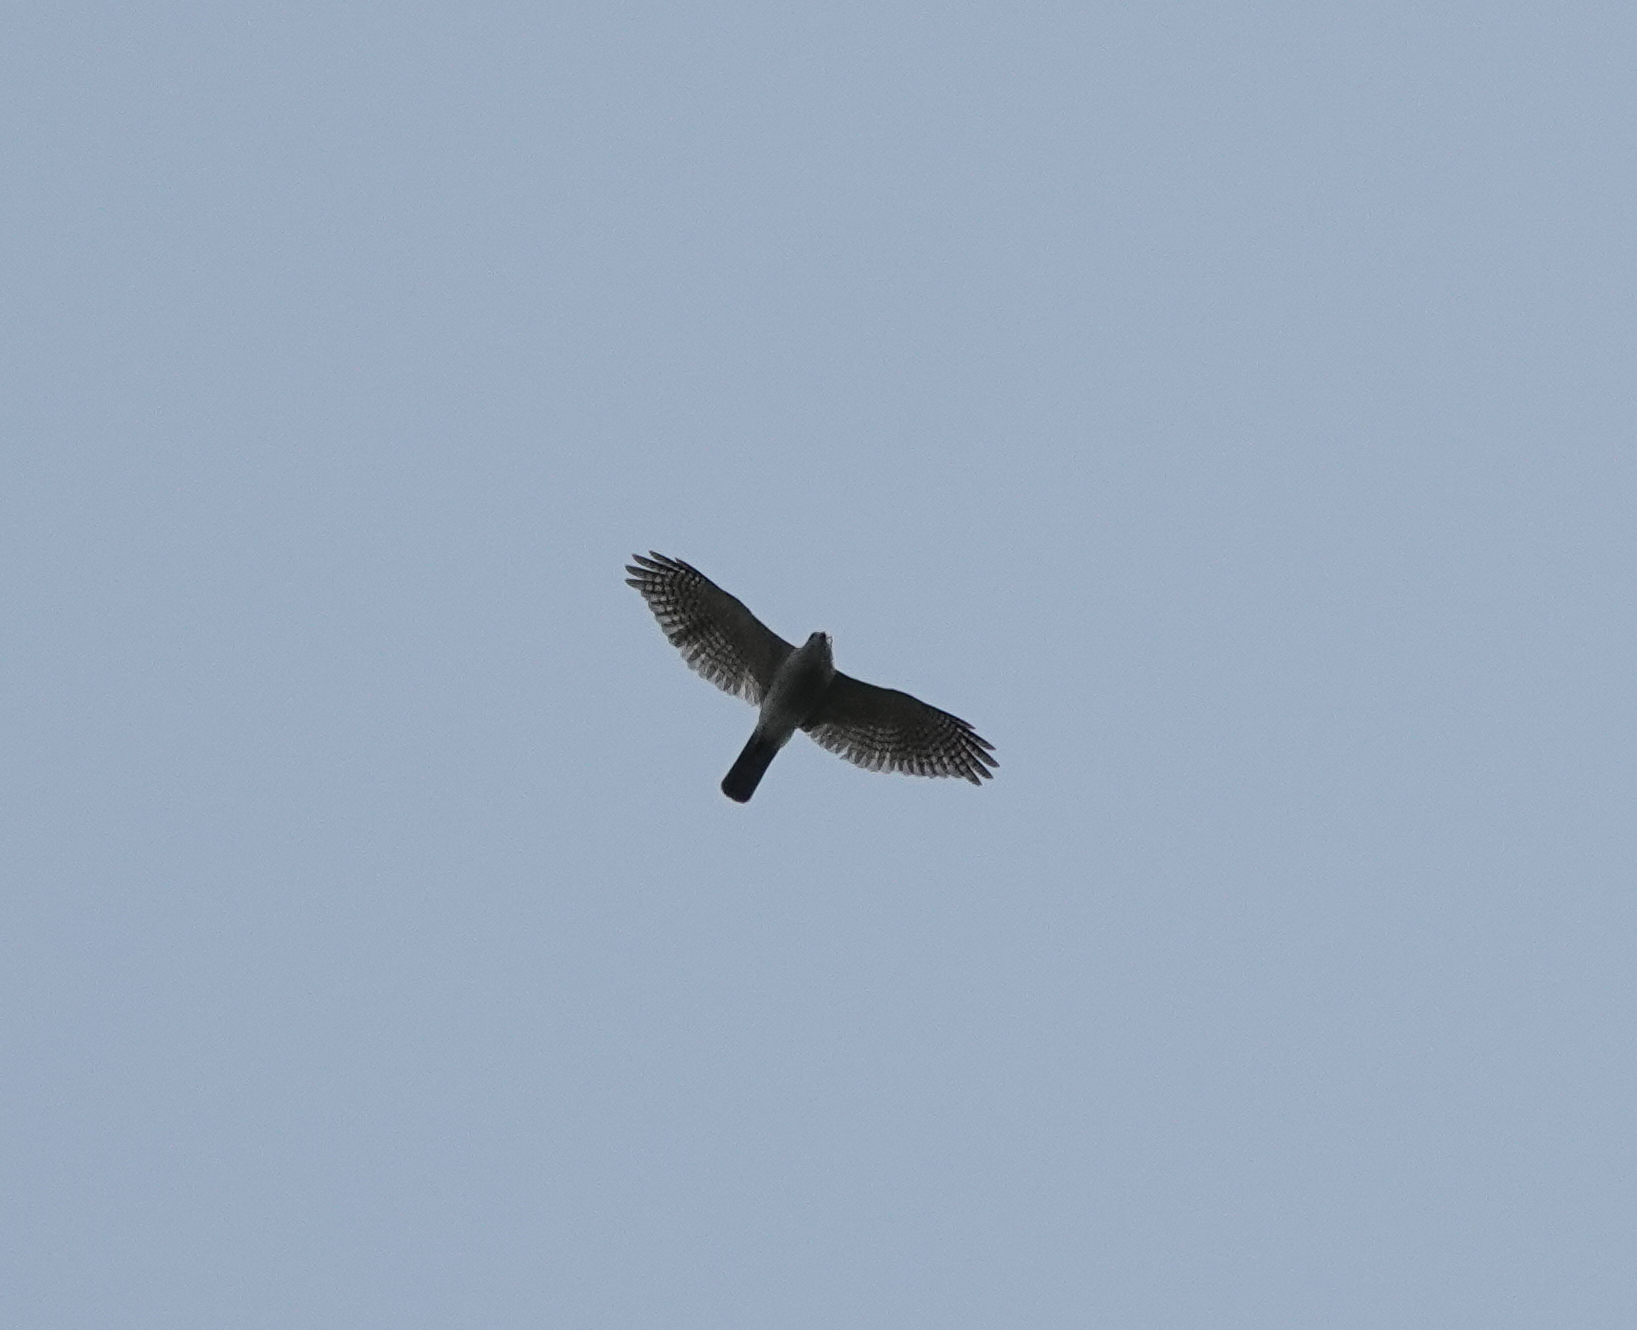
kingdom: Animalia
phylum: Chordata
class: Aves
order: Accipitriformes
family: Accipitridae
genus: Accipiter
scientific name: Accipiter badius
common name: Shikra
